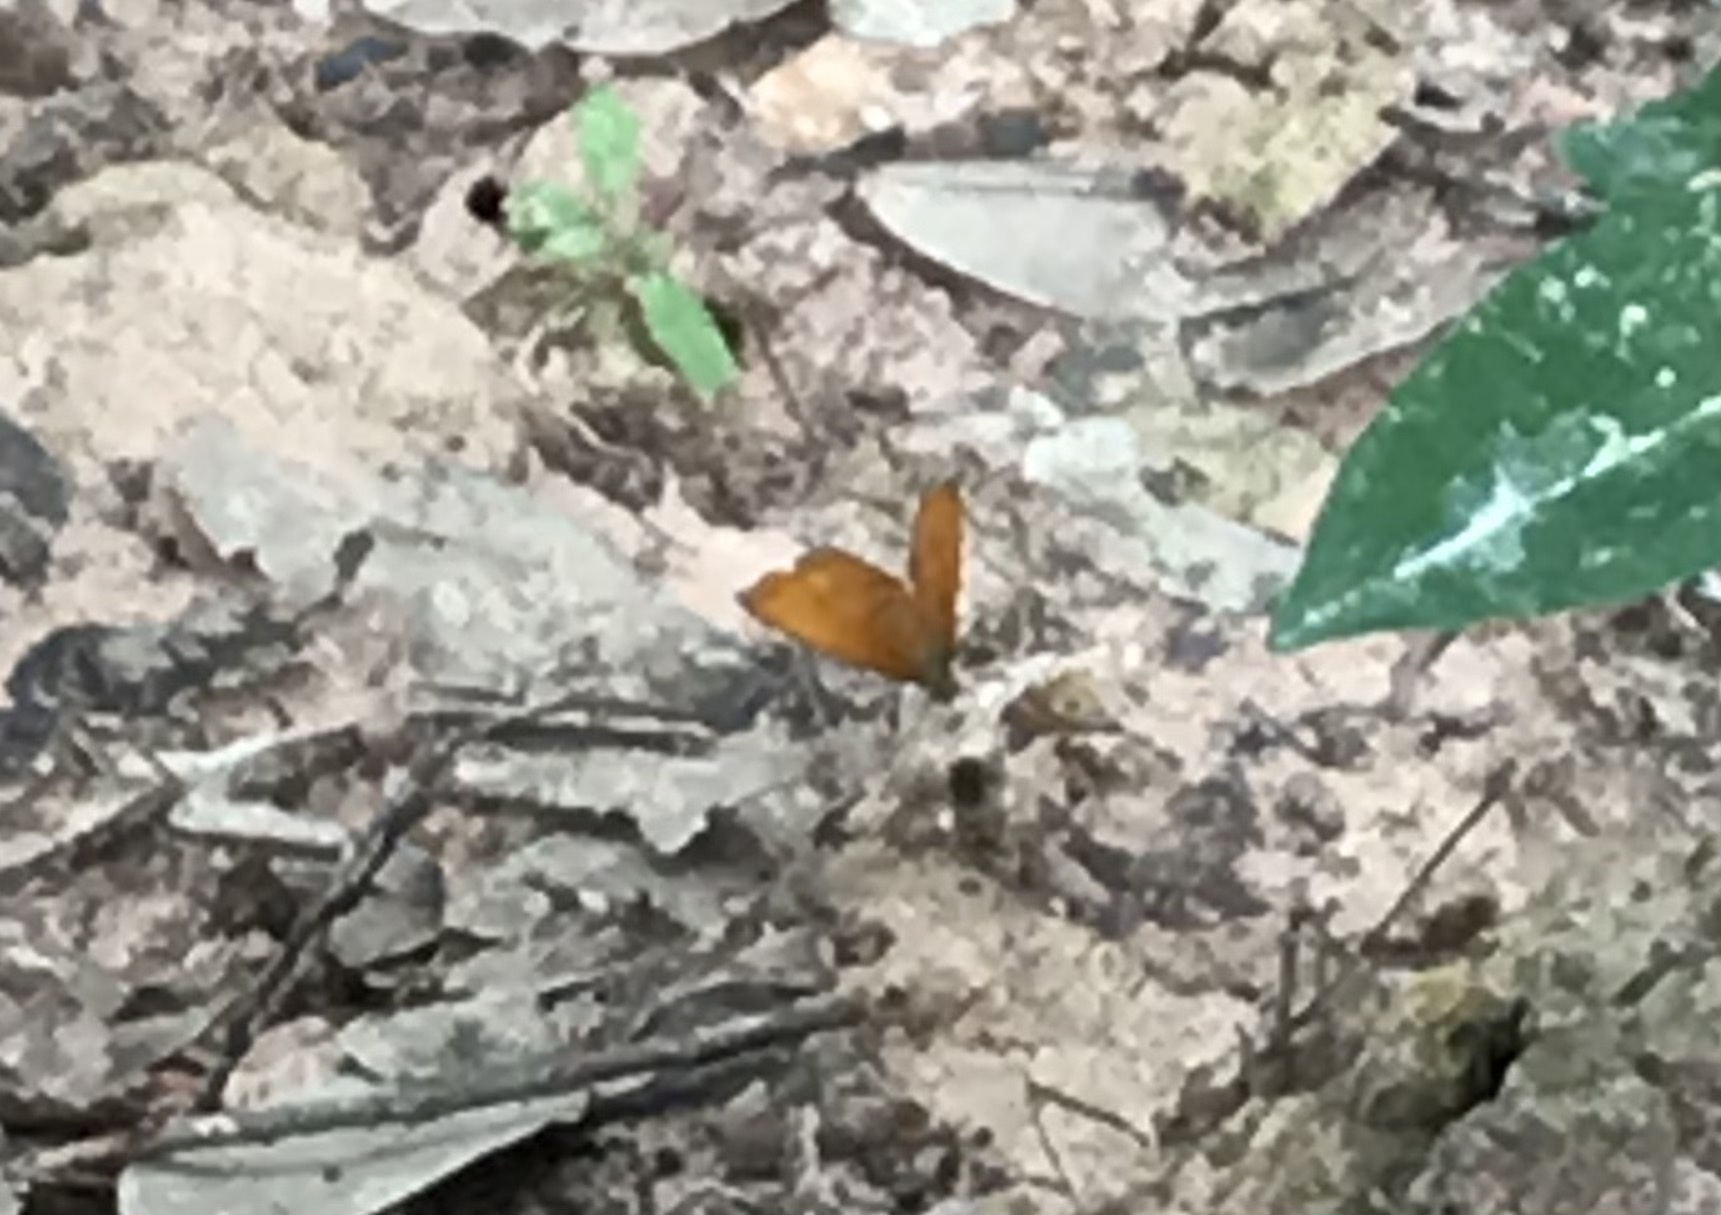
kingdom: Animalia
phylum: Arthropoda
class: Insecta
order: Lepidoptera
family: Nymphalidae
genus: Cirrochroa
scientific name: Cirrochroa tyche
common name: Common yeoman
